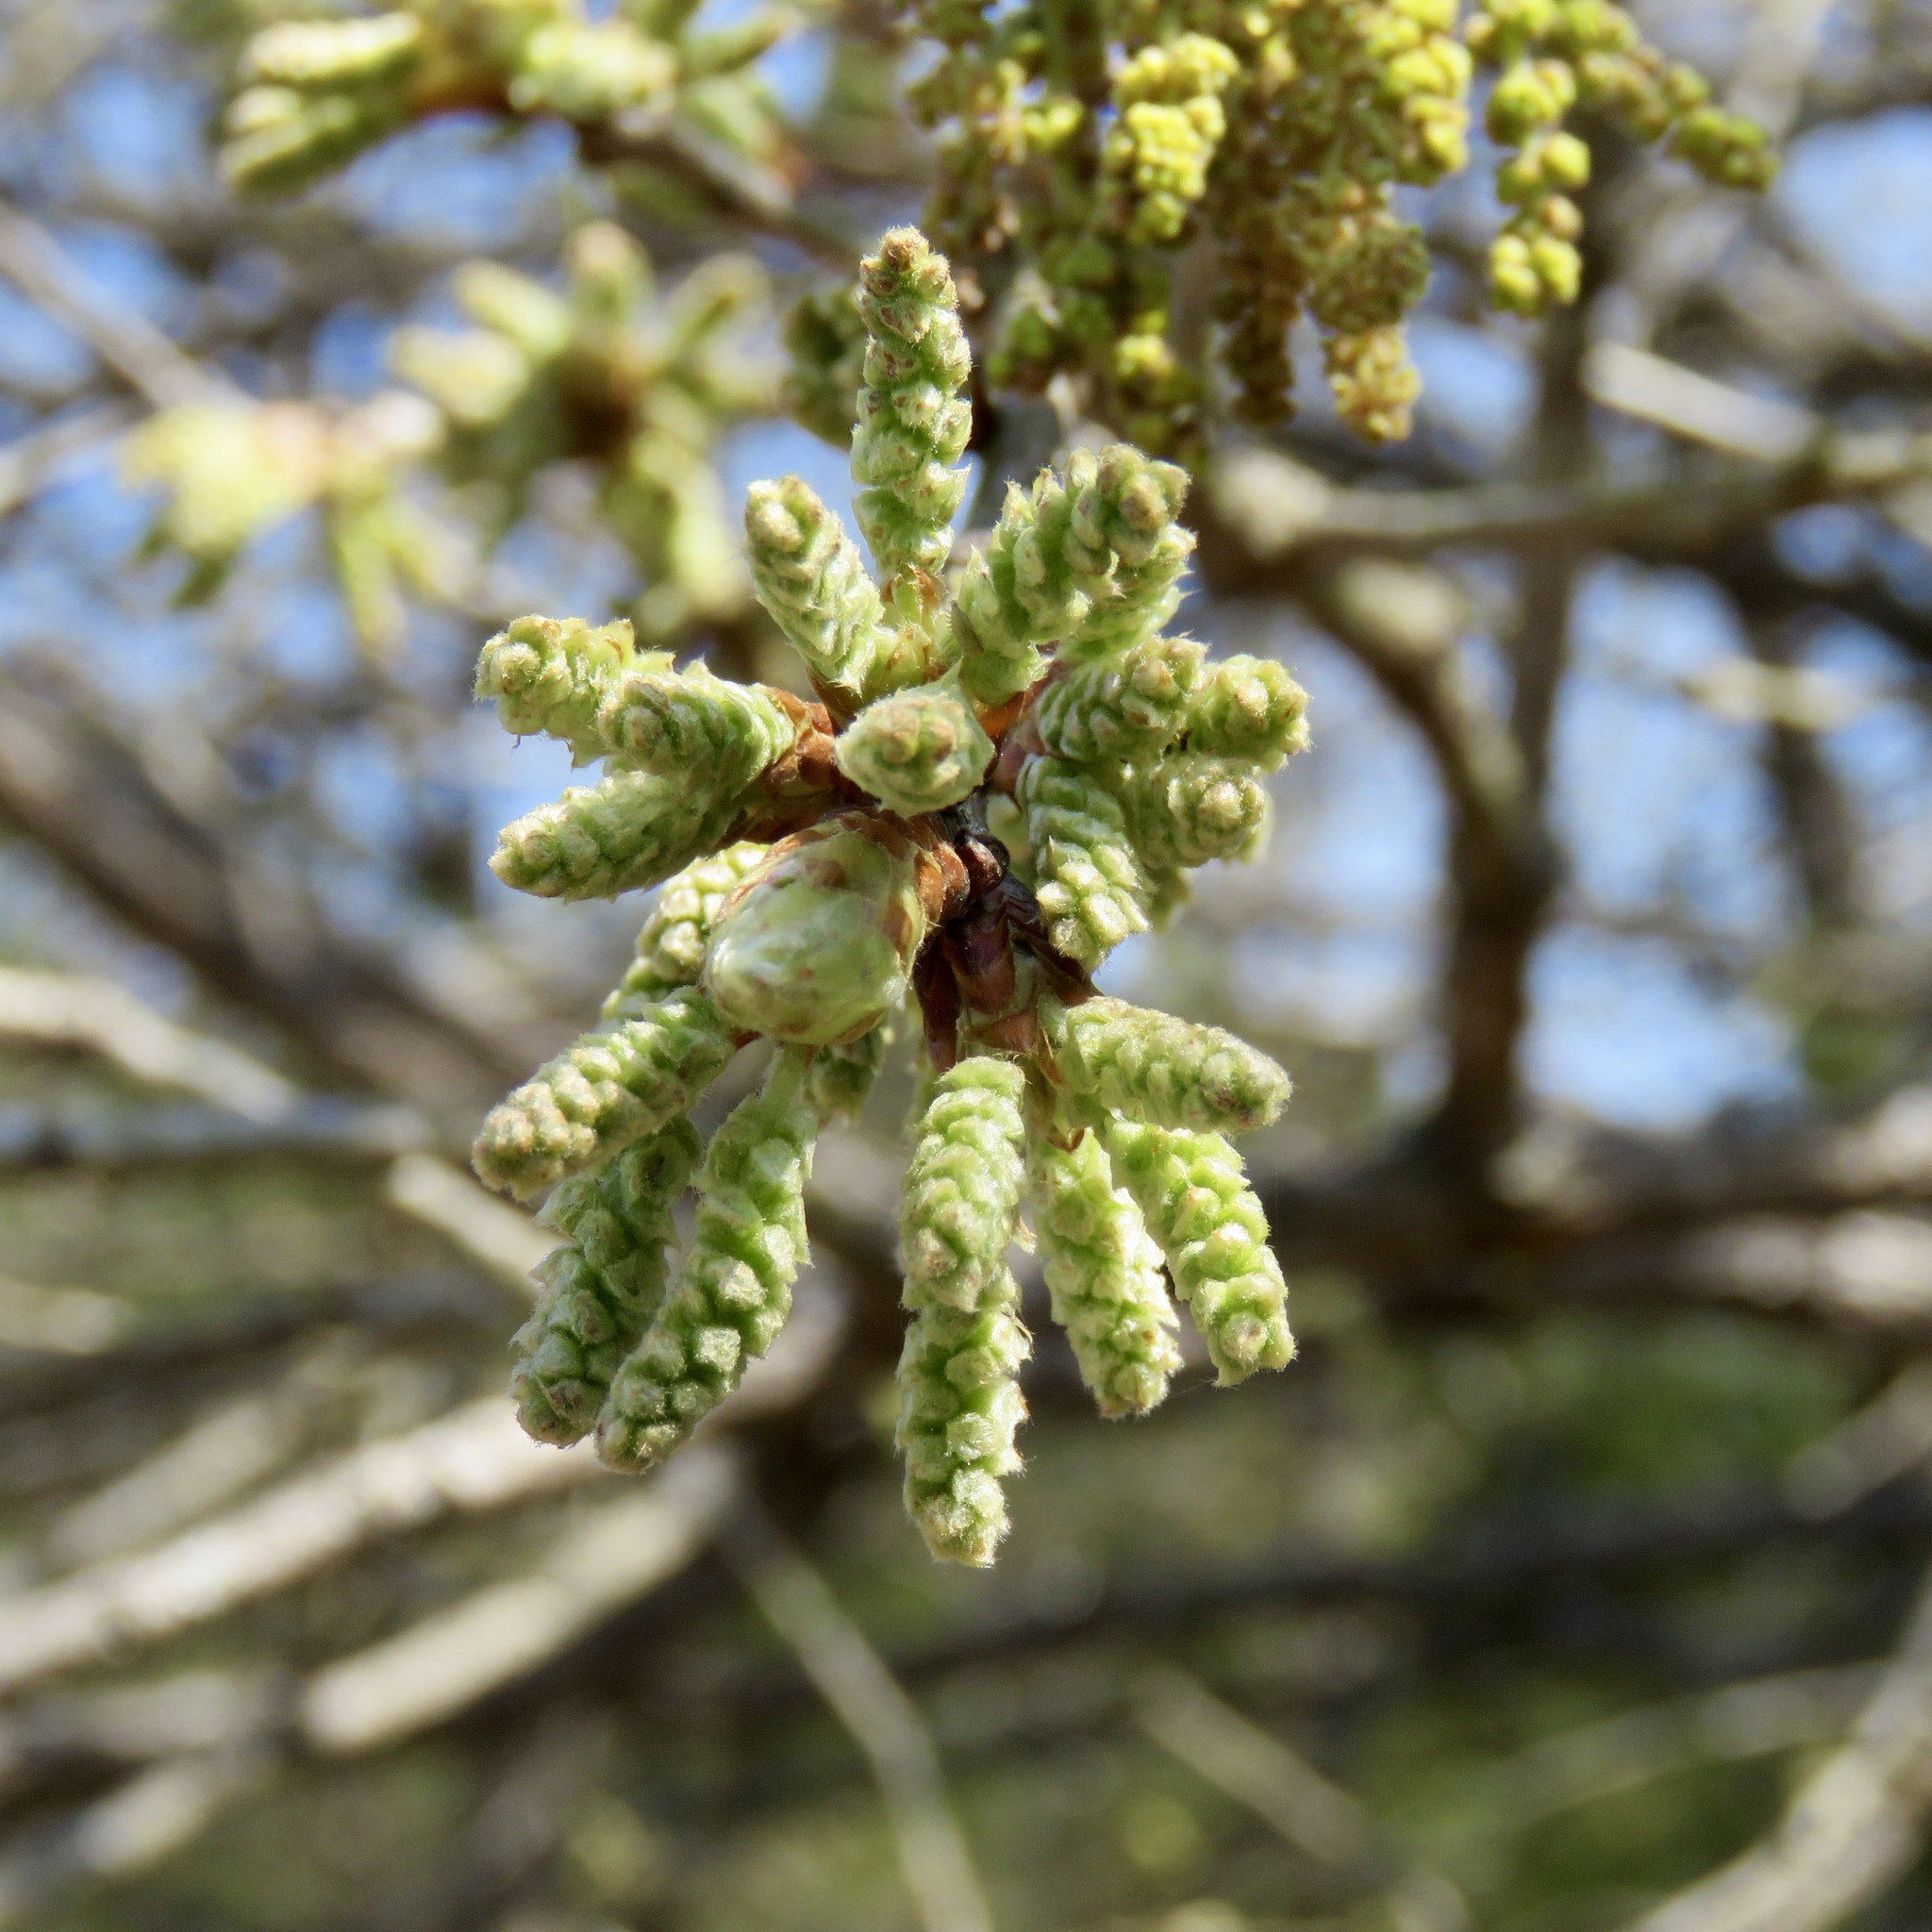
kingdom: Plantae
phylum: Tracheophyta
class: Magnoliopsida
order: Fagales
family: Fagaceae
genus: Quercus
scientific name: Quercus stellata
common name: Post oak
